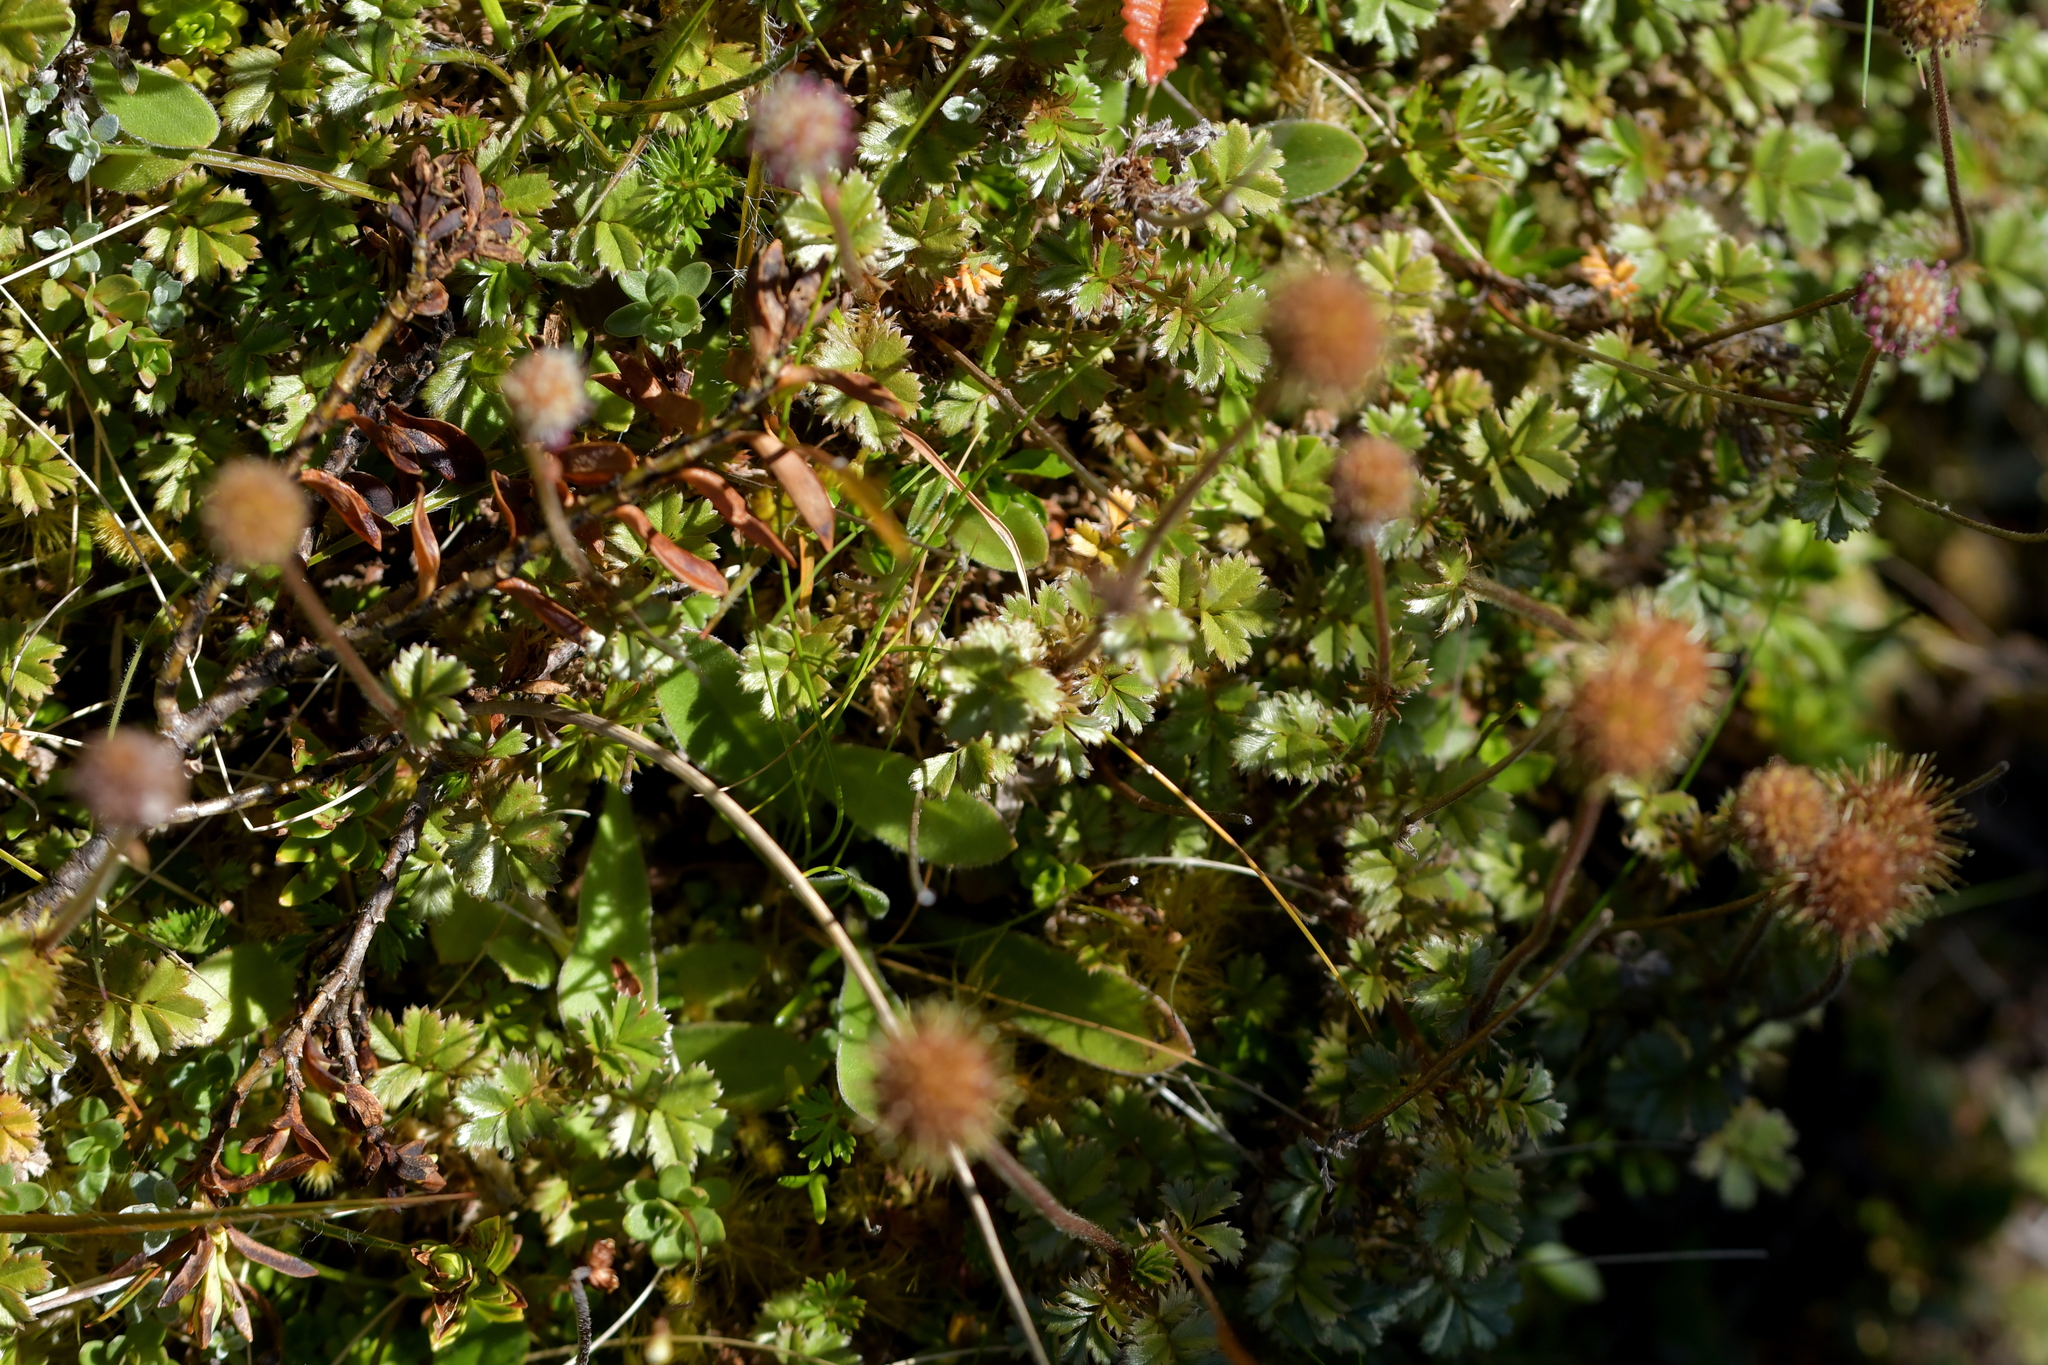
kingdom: Plantae
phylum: Tracheophyta
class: Magnoliopsida
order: Rosales
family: Rosaceae
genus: Acaena
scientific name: Acaena anserinifolia
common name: Bronze pirri-pirri-bur
